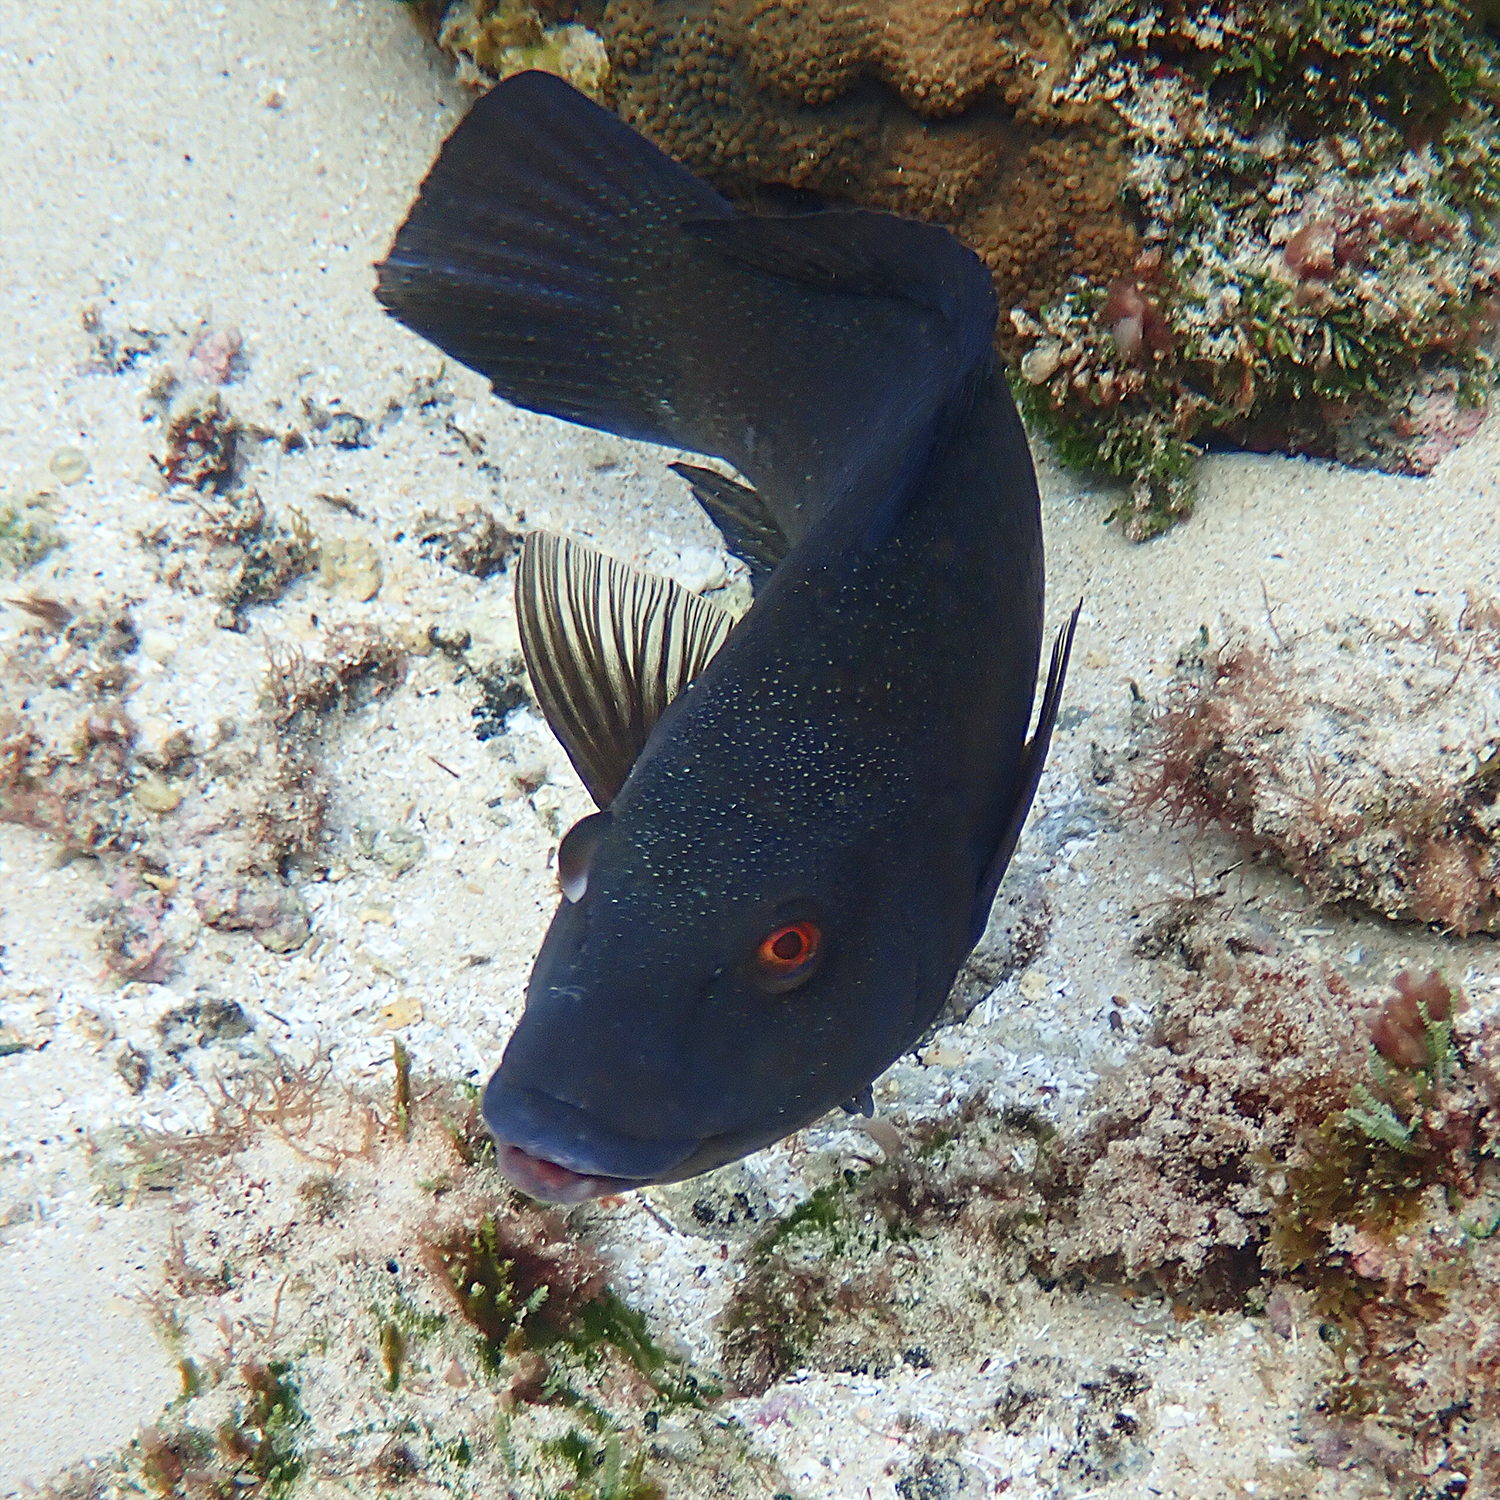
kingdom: Animalia
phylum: Chordata
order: Perciformes
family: Labridae
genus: Notolabrus
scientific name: Notolabrus inscriptus
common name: Green wrasse
